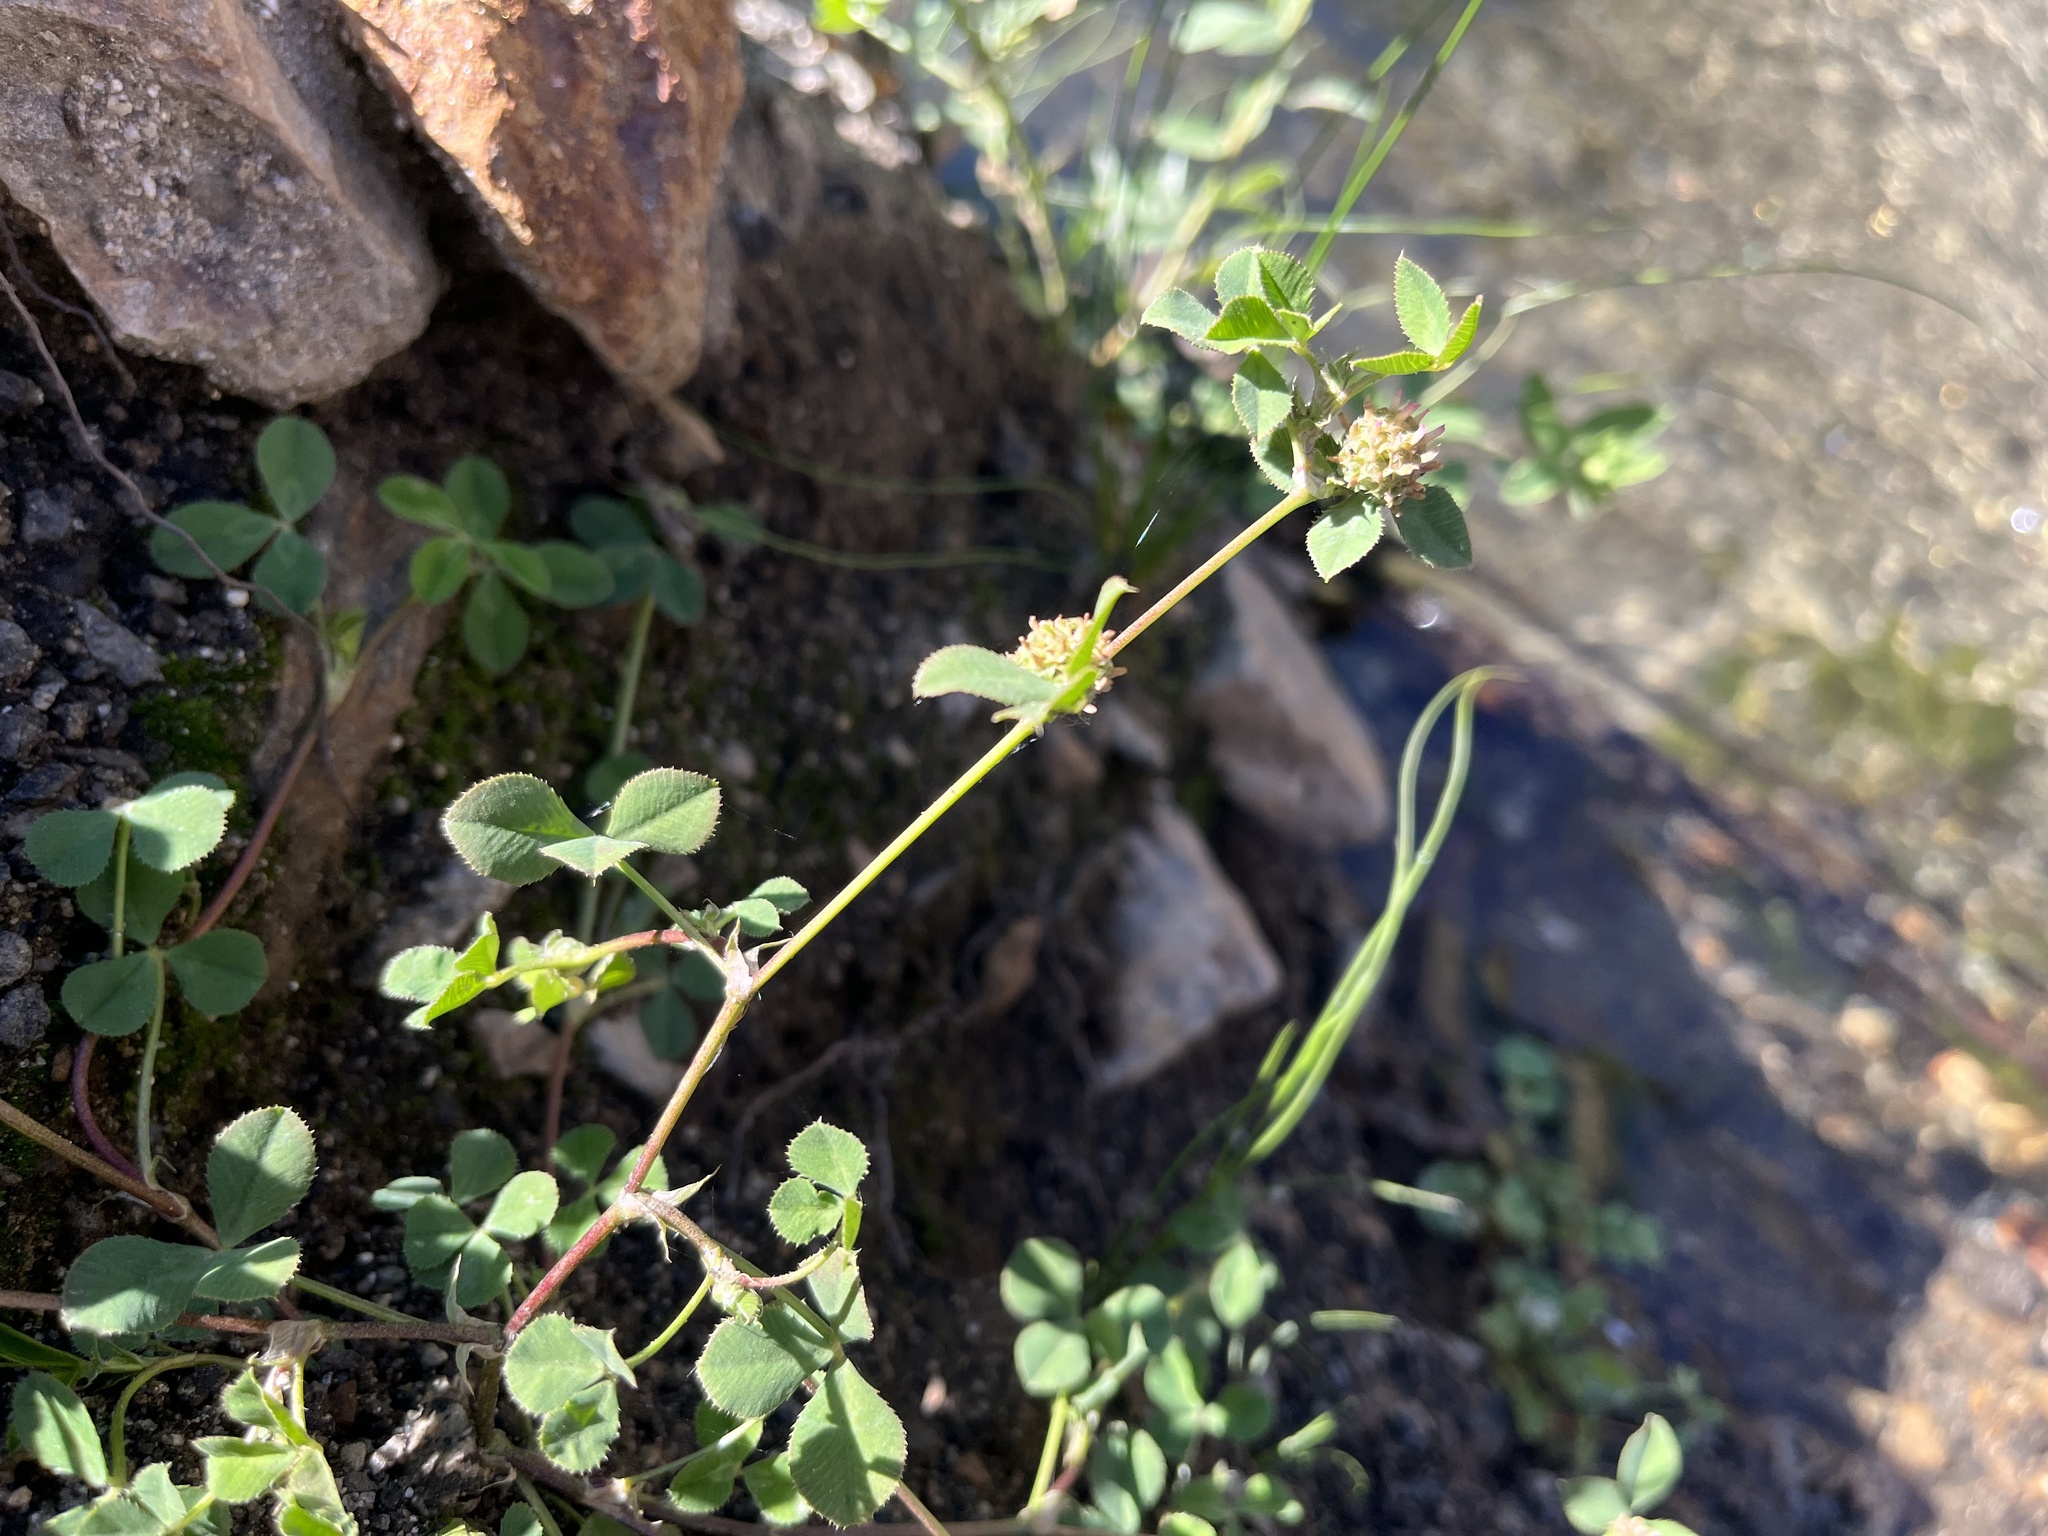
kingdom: Plantae
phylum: Tracheophyta
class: Magnoliopsida
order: Fabales
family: Fabaceae
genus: Trifolium
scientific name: Trifolium glomeratum
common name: Clustered clover
